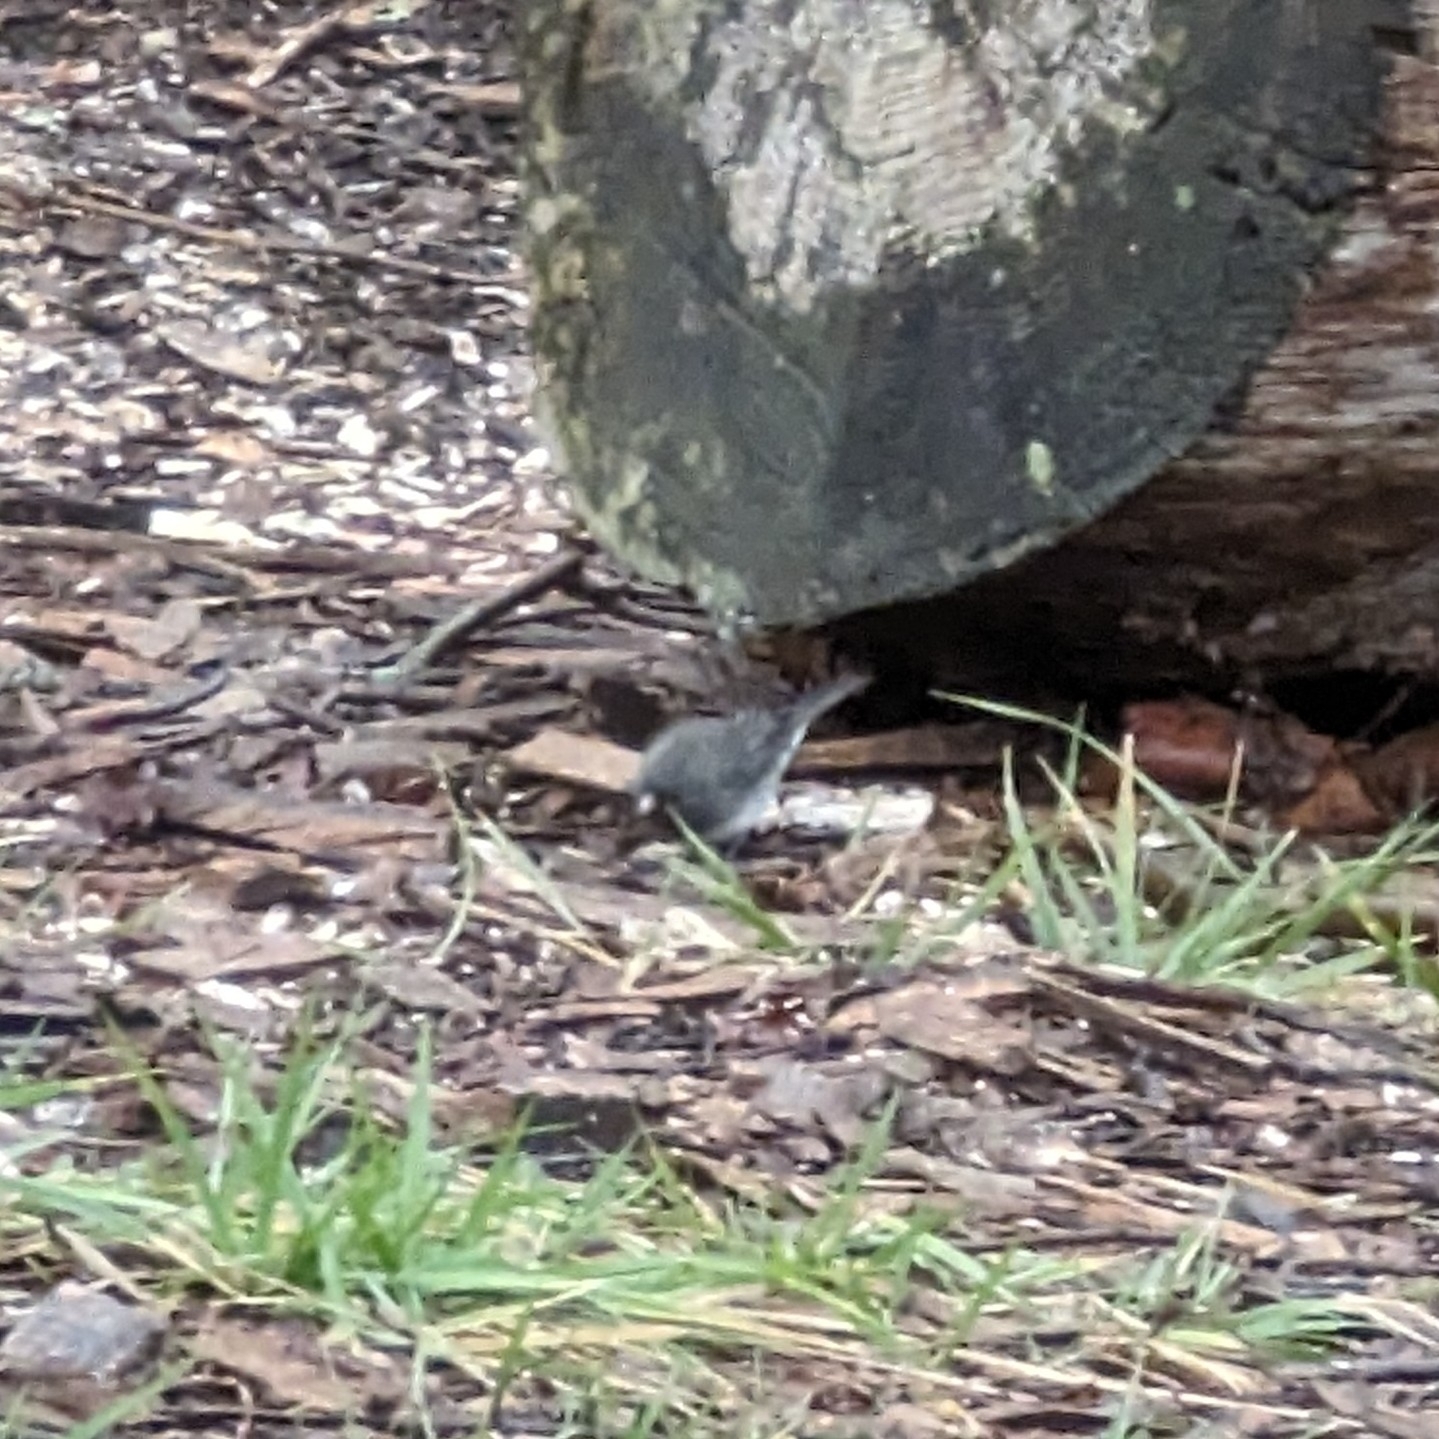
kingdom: Animalia
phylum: Chordata
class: Aves
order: Passeriformes
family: Passerellidae
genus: Junco
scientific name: Junco hyemalis
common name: Dark-eyed junco
